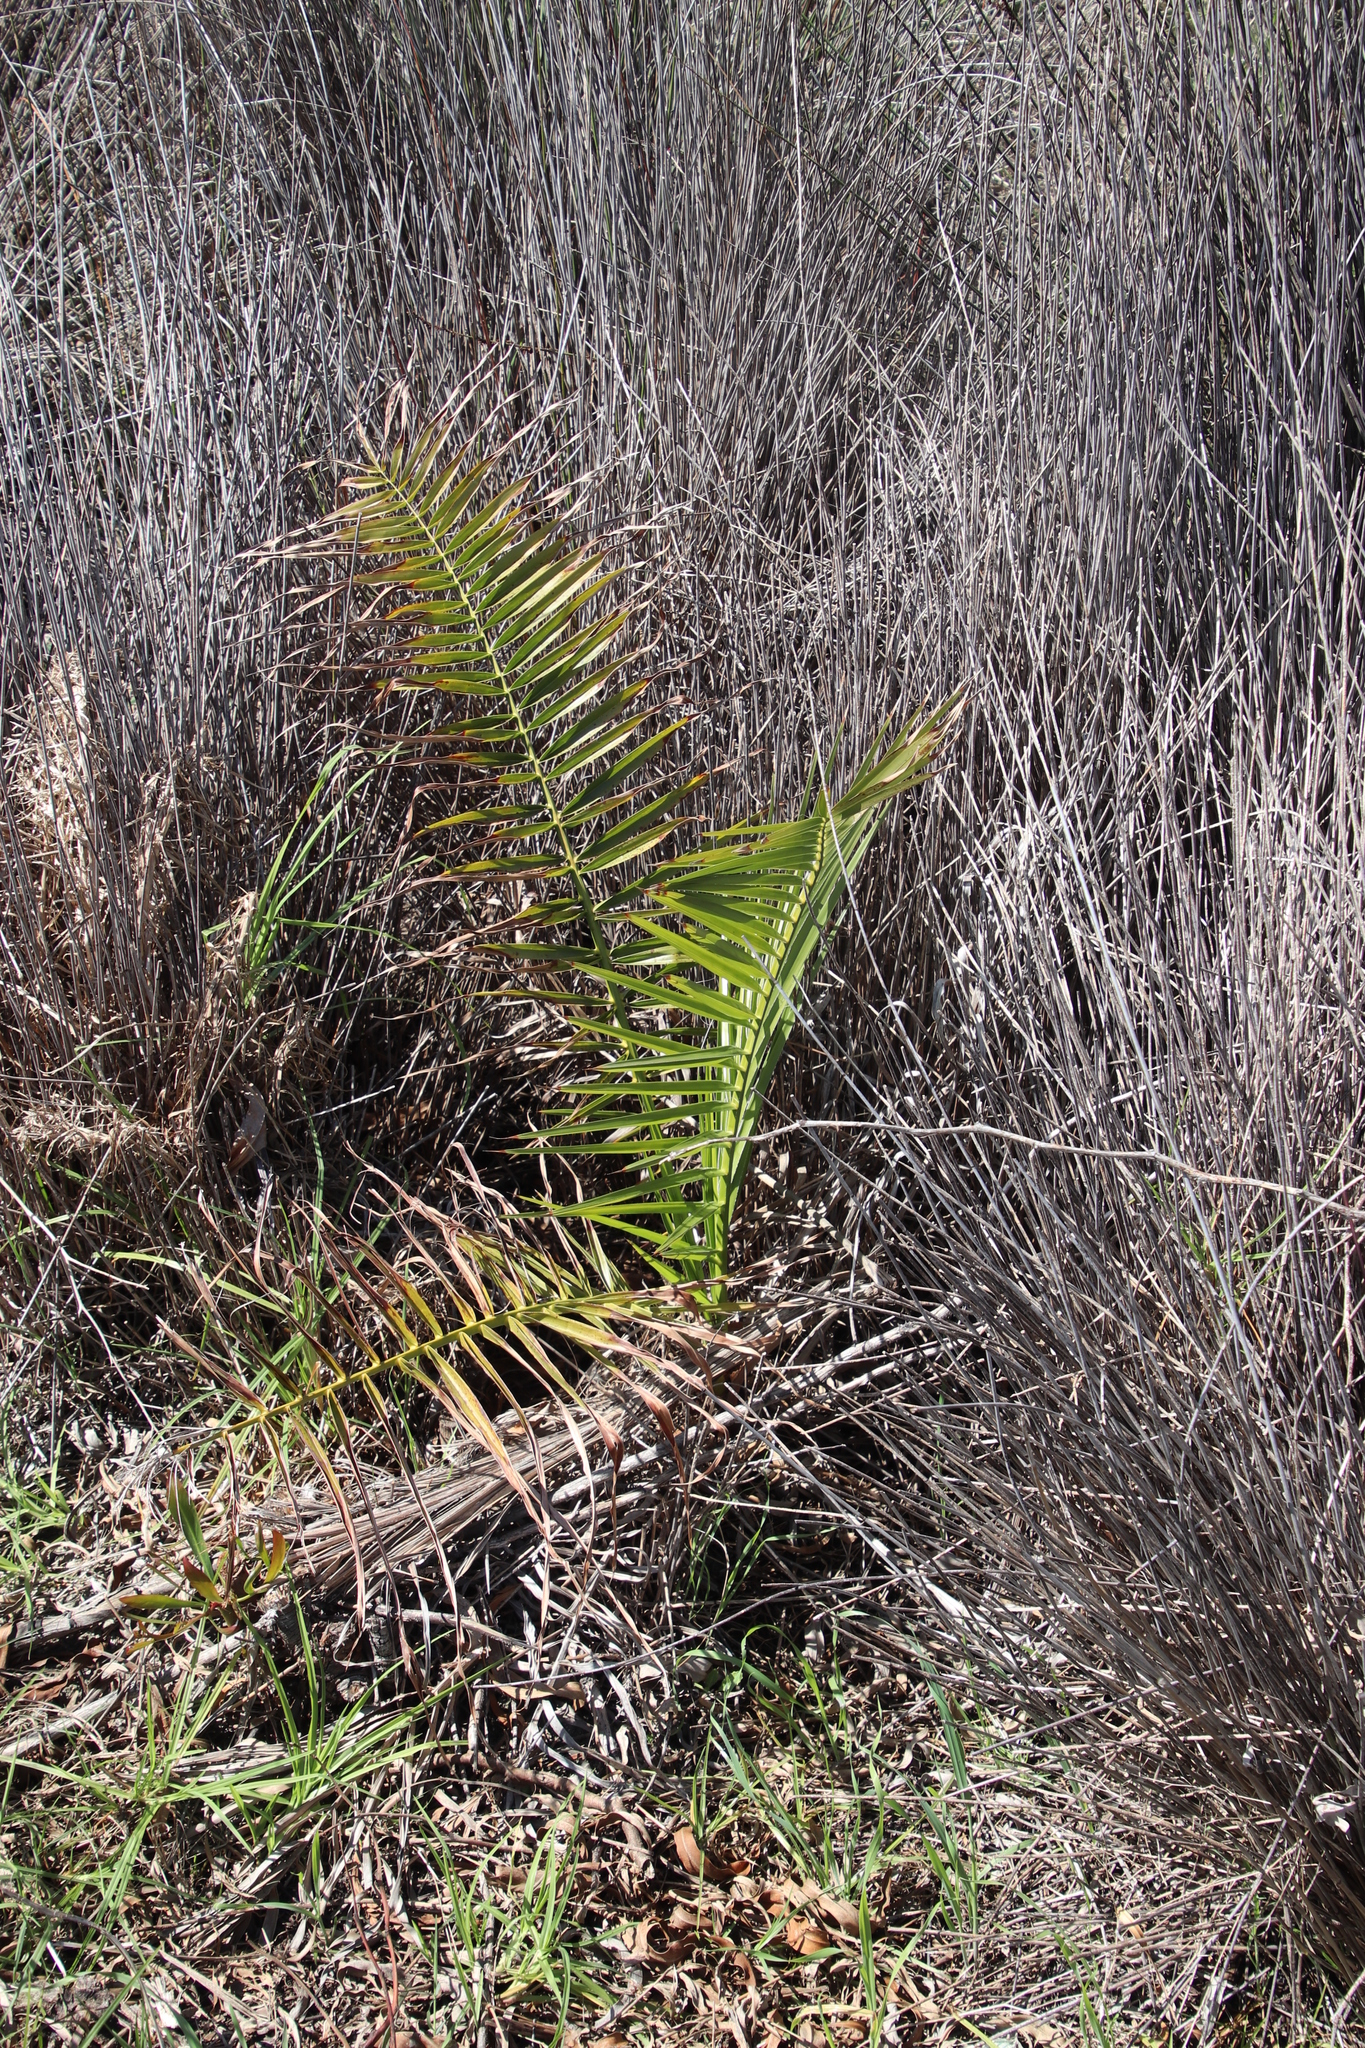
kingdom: Plantae
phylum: Tracheophyta
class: Liliopsida
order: Arecales
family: Arecaceae
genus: Phoenix
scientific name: Phoenix canariensis
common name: Canary island date palm
